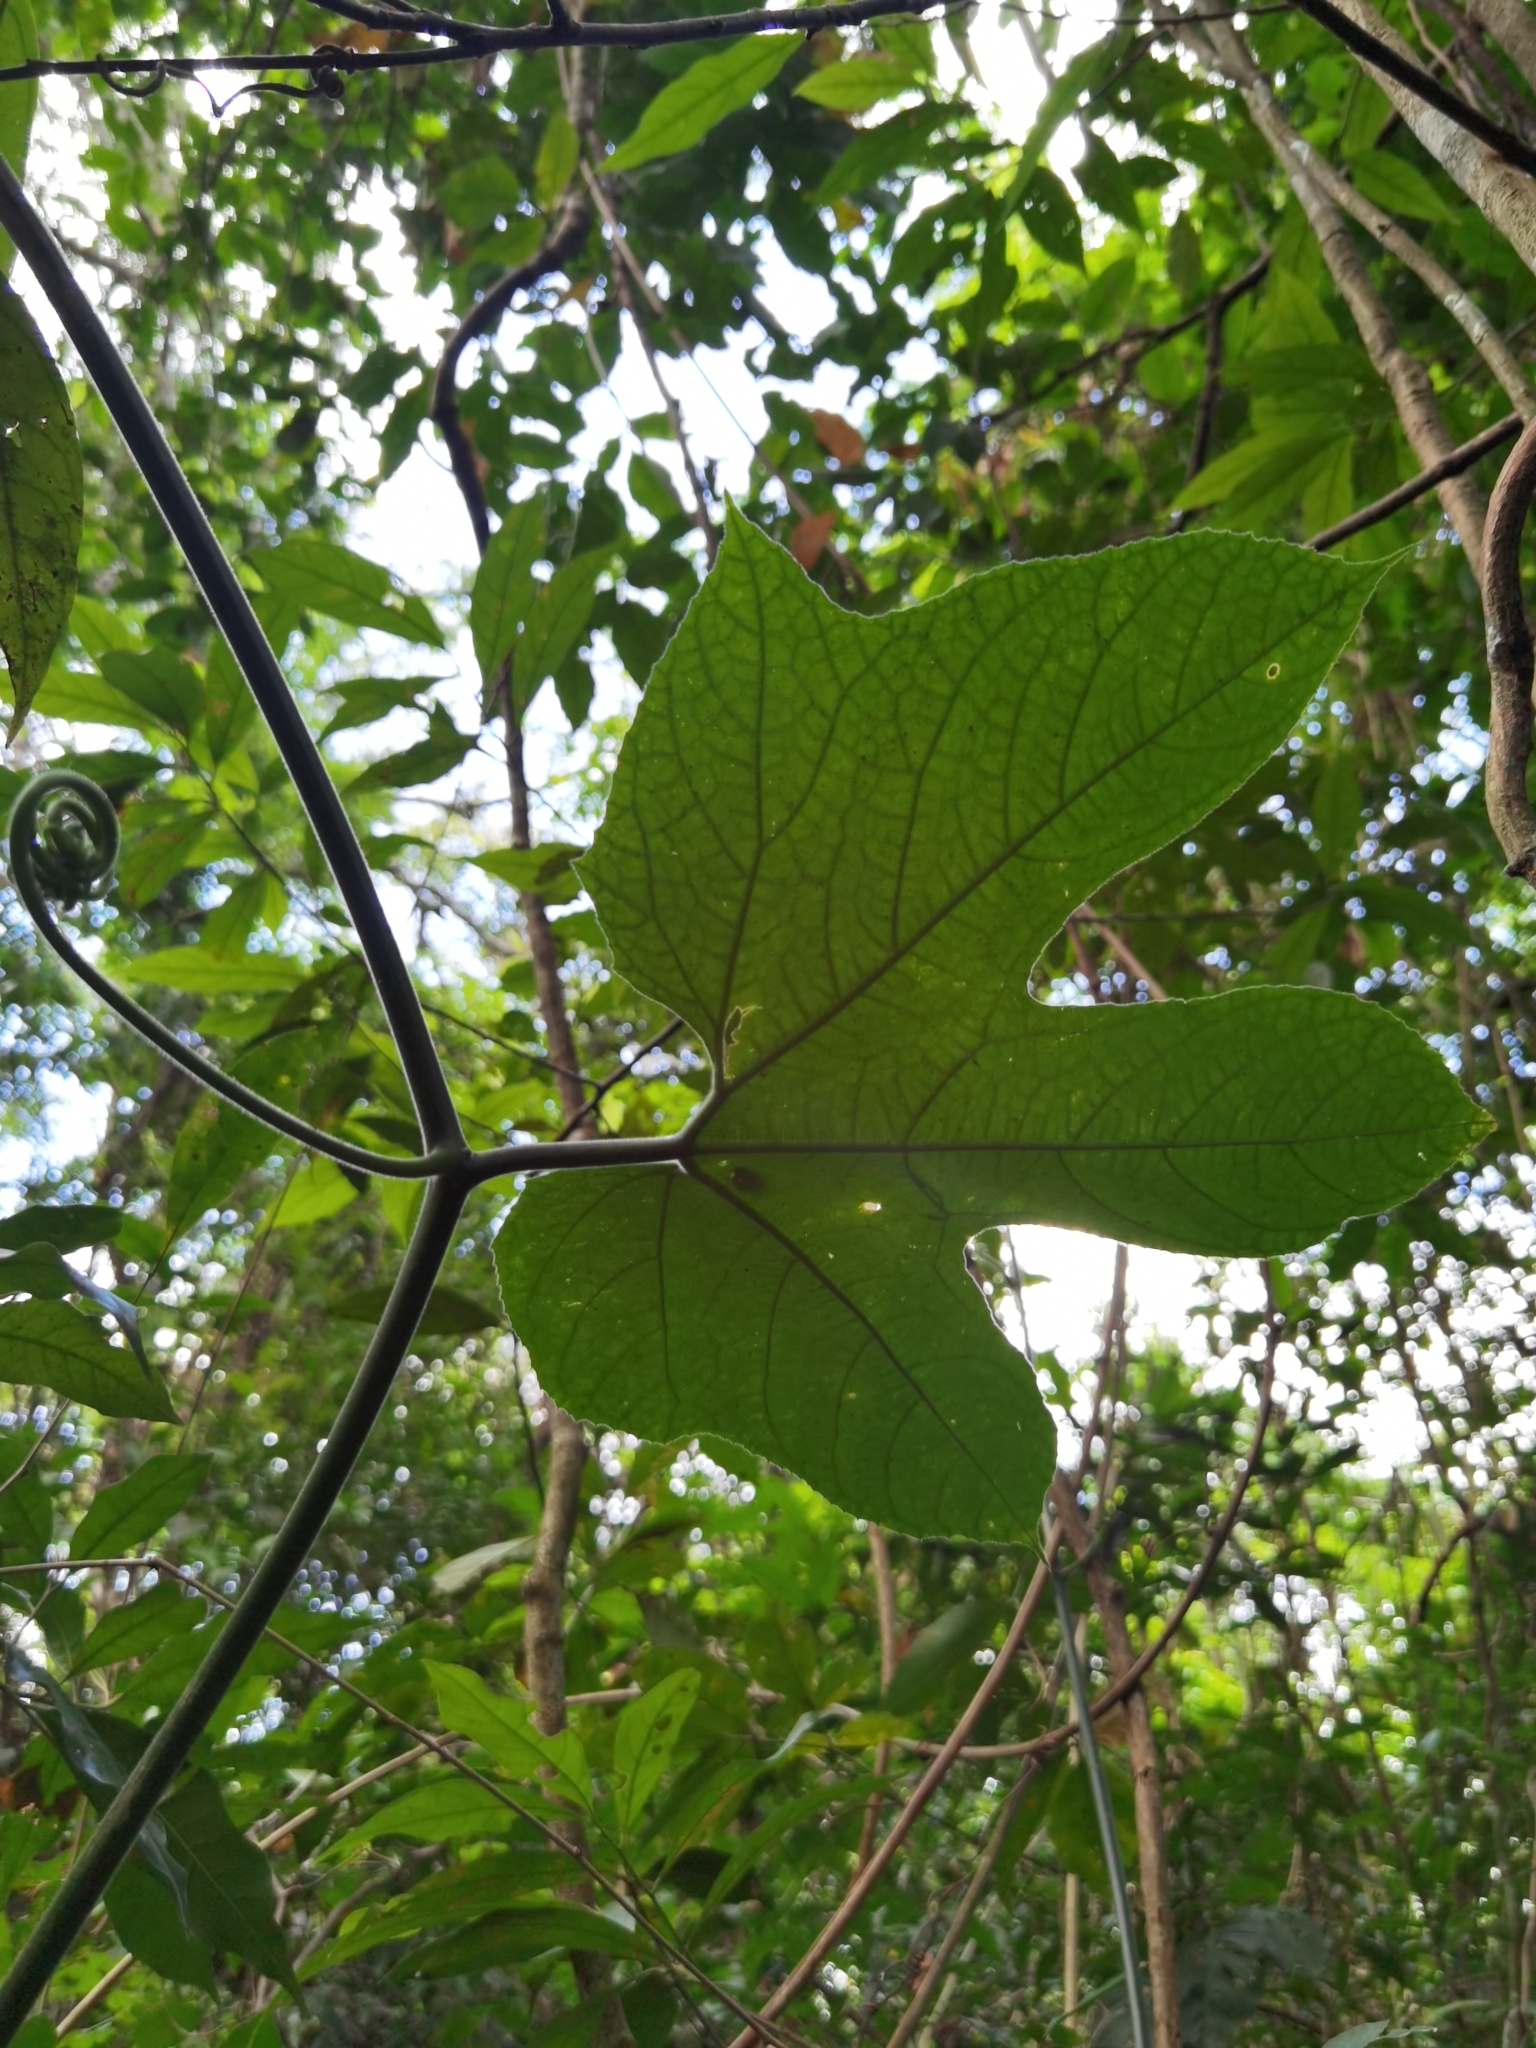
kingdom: Plantae
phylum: Tracheophyta
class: Magnoliopsida
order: Cucurbitales
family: Cucurbitaceae
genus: Gurania
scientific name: Gurania makoyana
